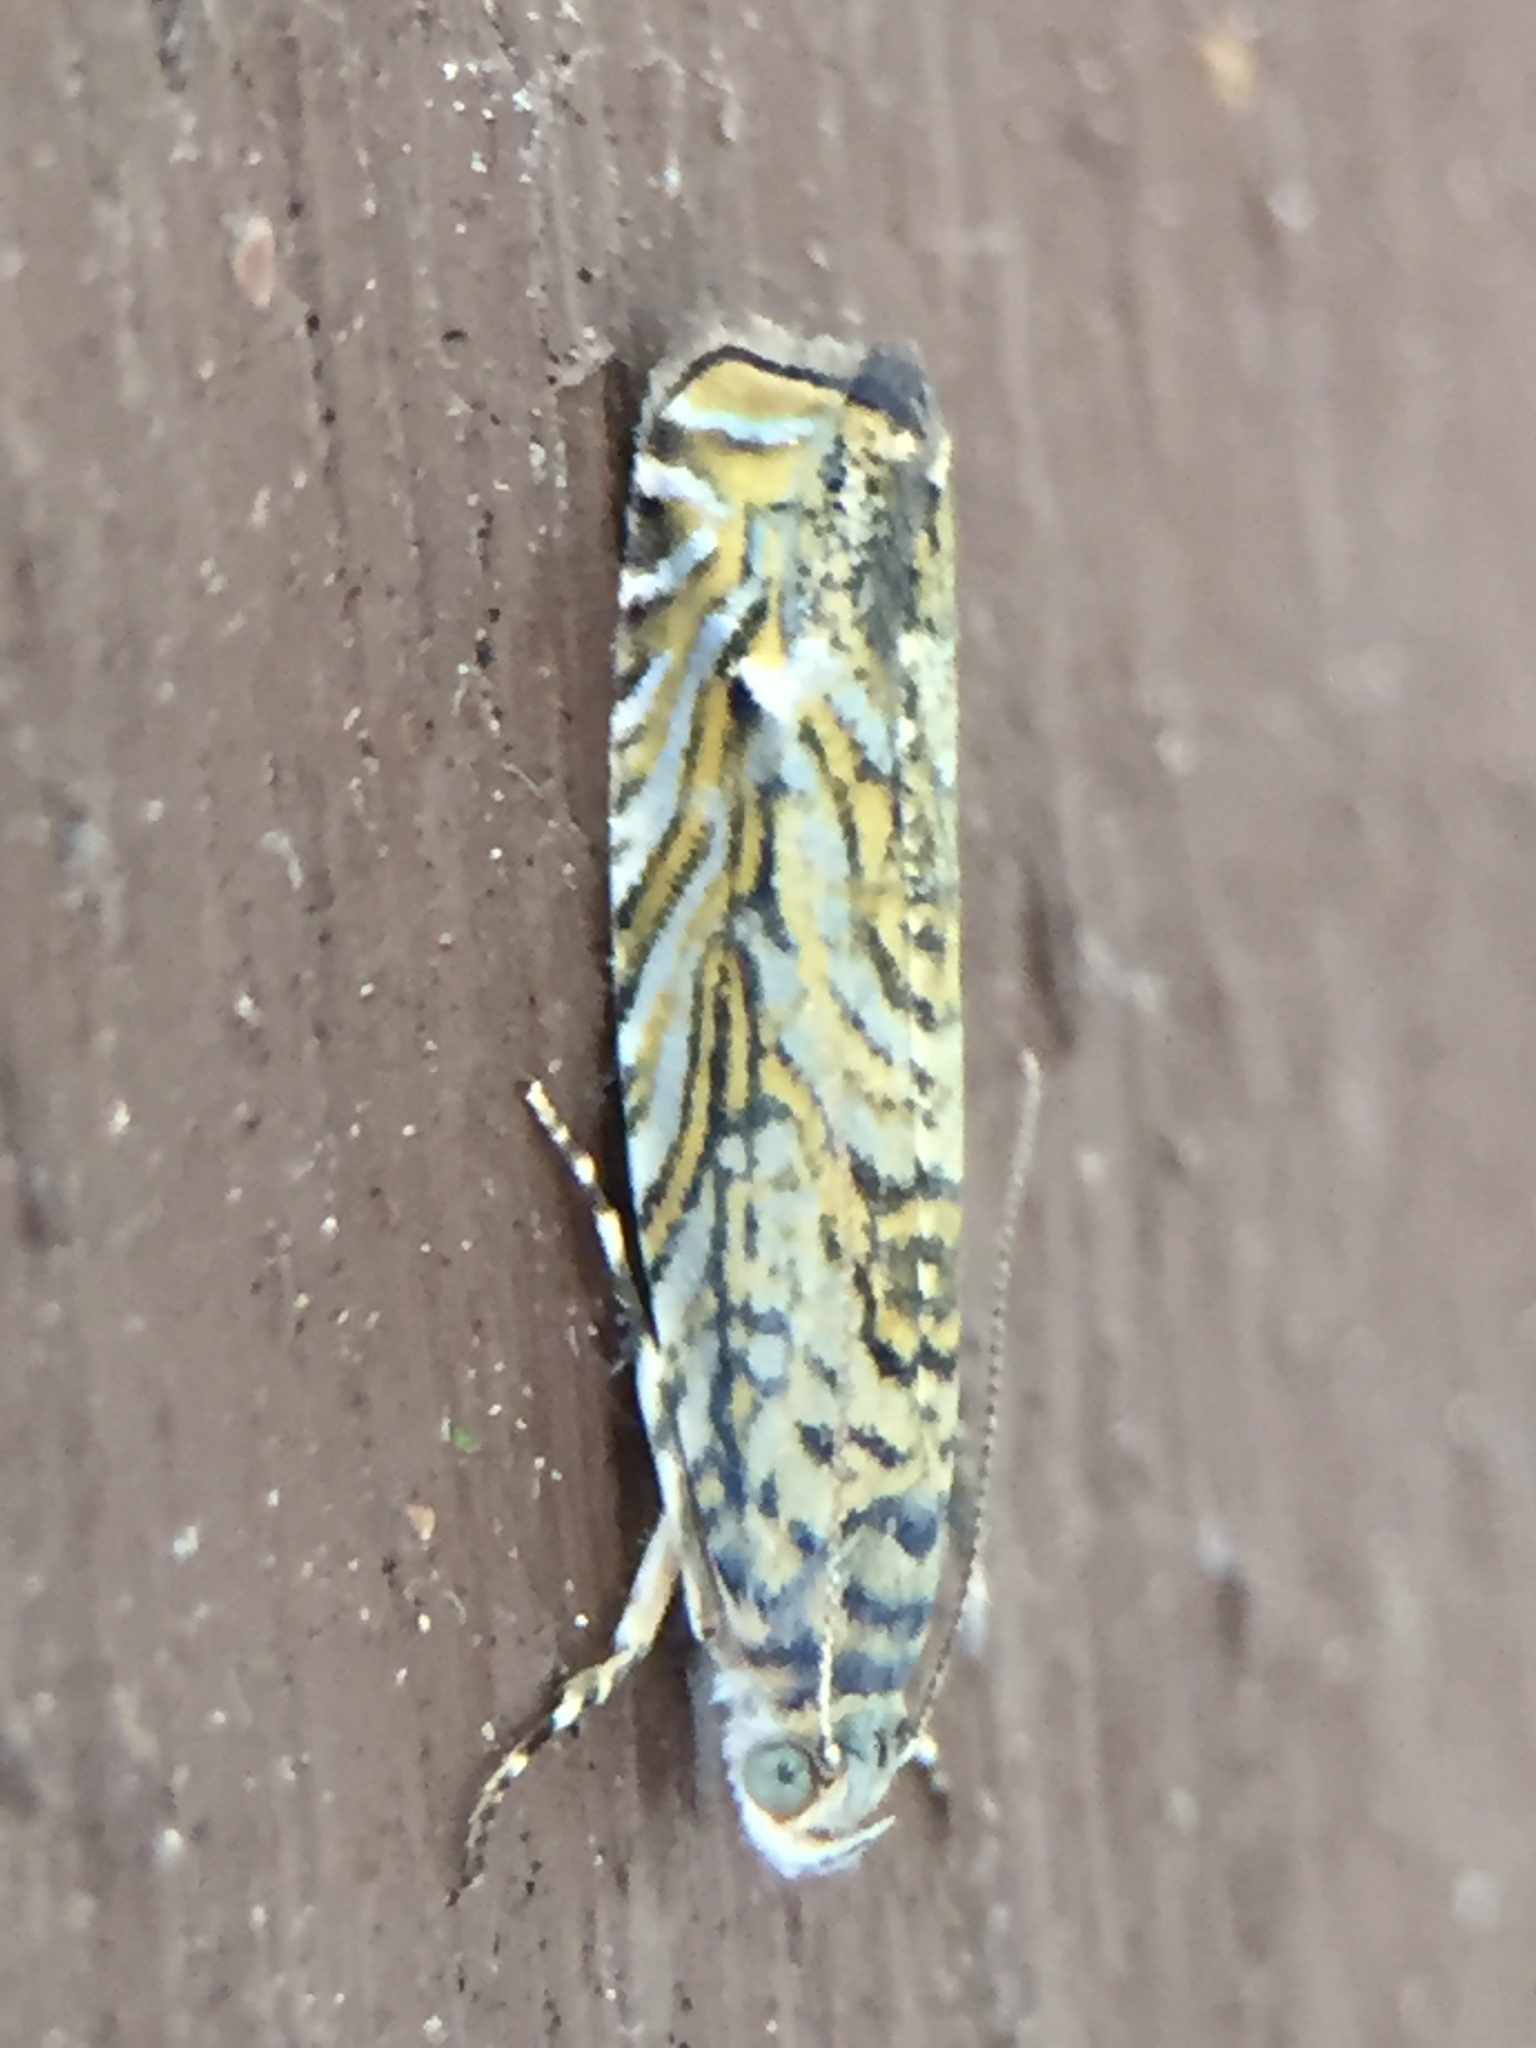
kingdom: Animalia
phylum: Arthropoda
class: Insecta
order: Lepidoptera
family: Plutellidae
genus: Doxophyrtis
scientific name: Doxophyrtis hydrocosma
